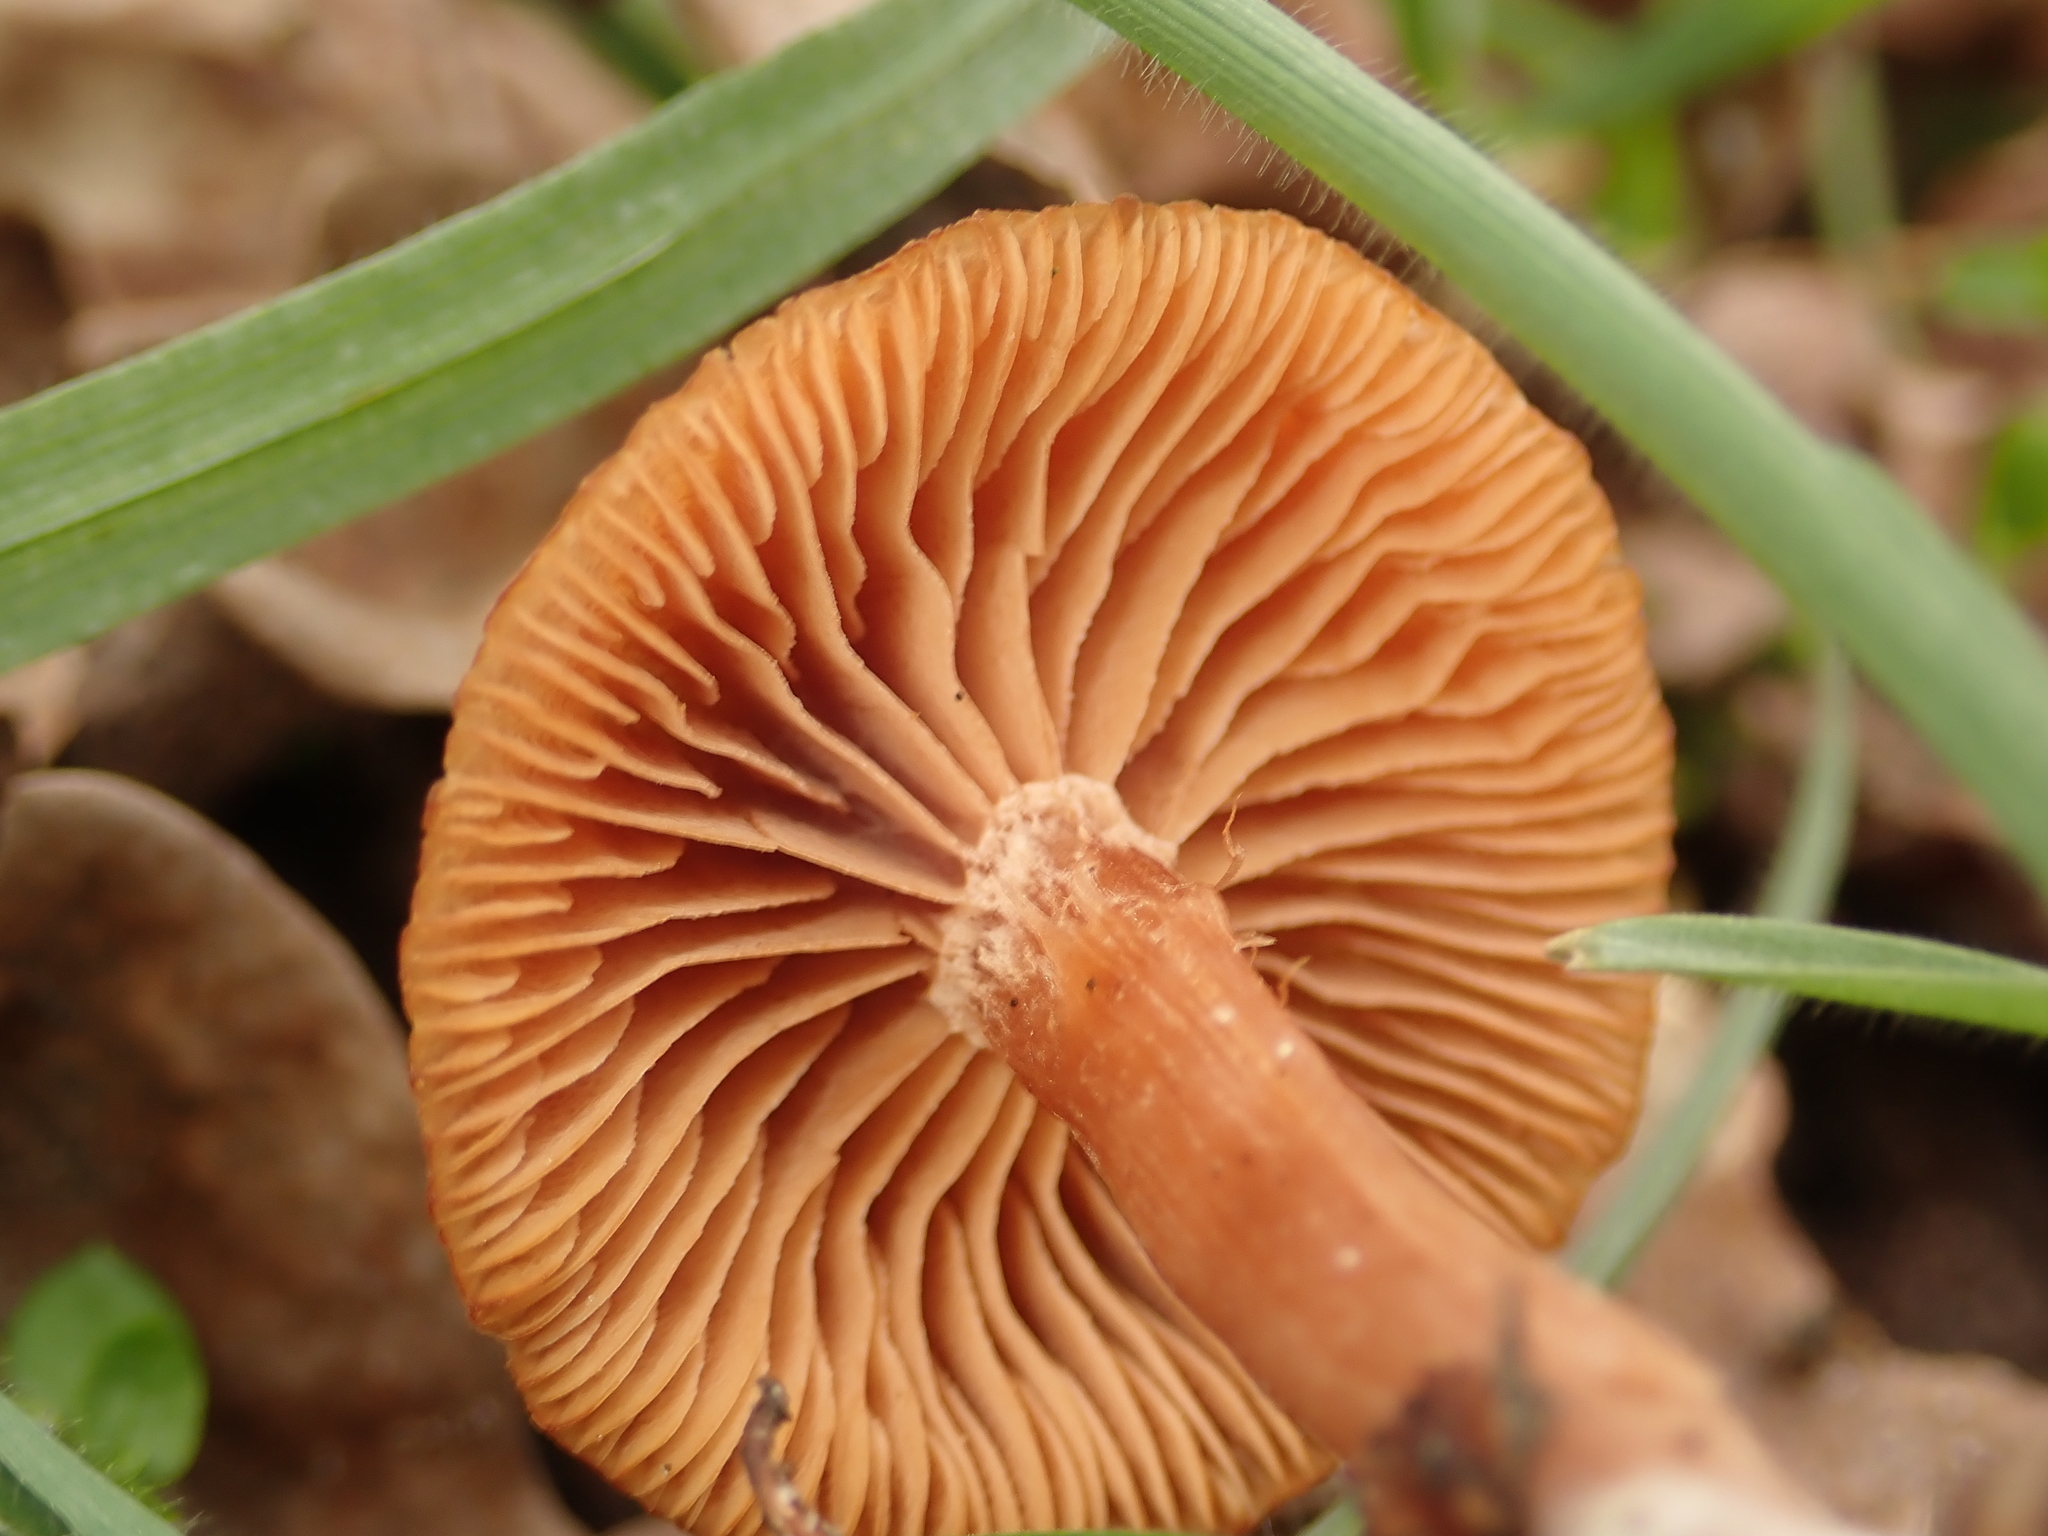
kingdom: Fungi
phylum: Basidiomycota
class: Agaricomycetes
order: Agaricales
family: Tubariaceae
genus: Tubaria
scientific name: Tubaria furfuracea
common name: Scurfy twiglet
